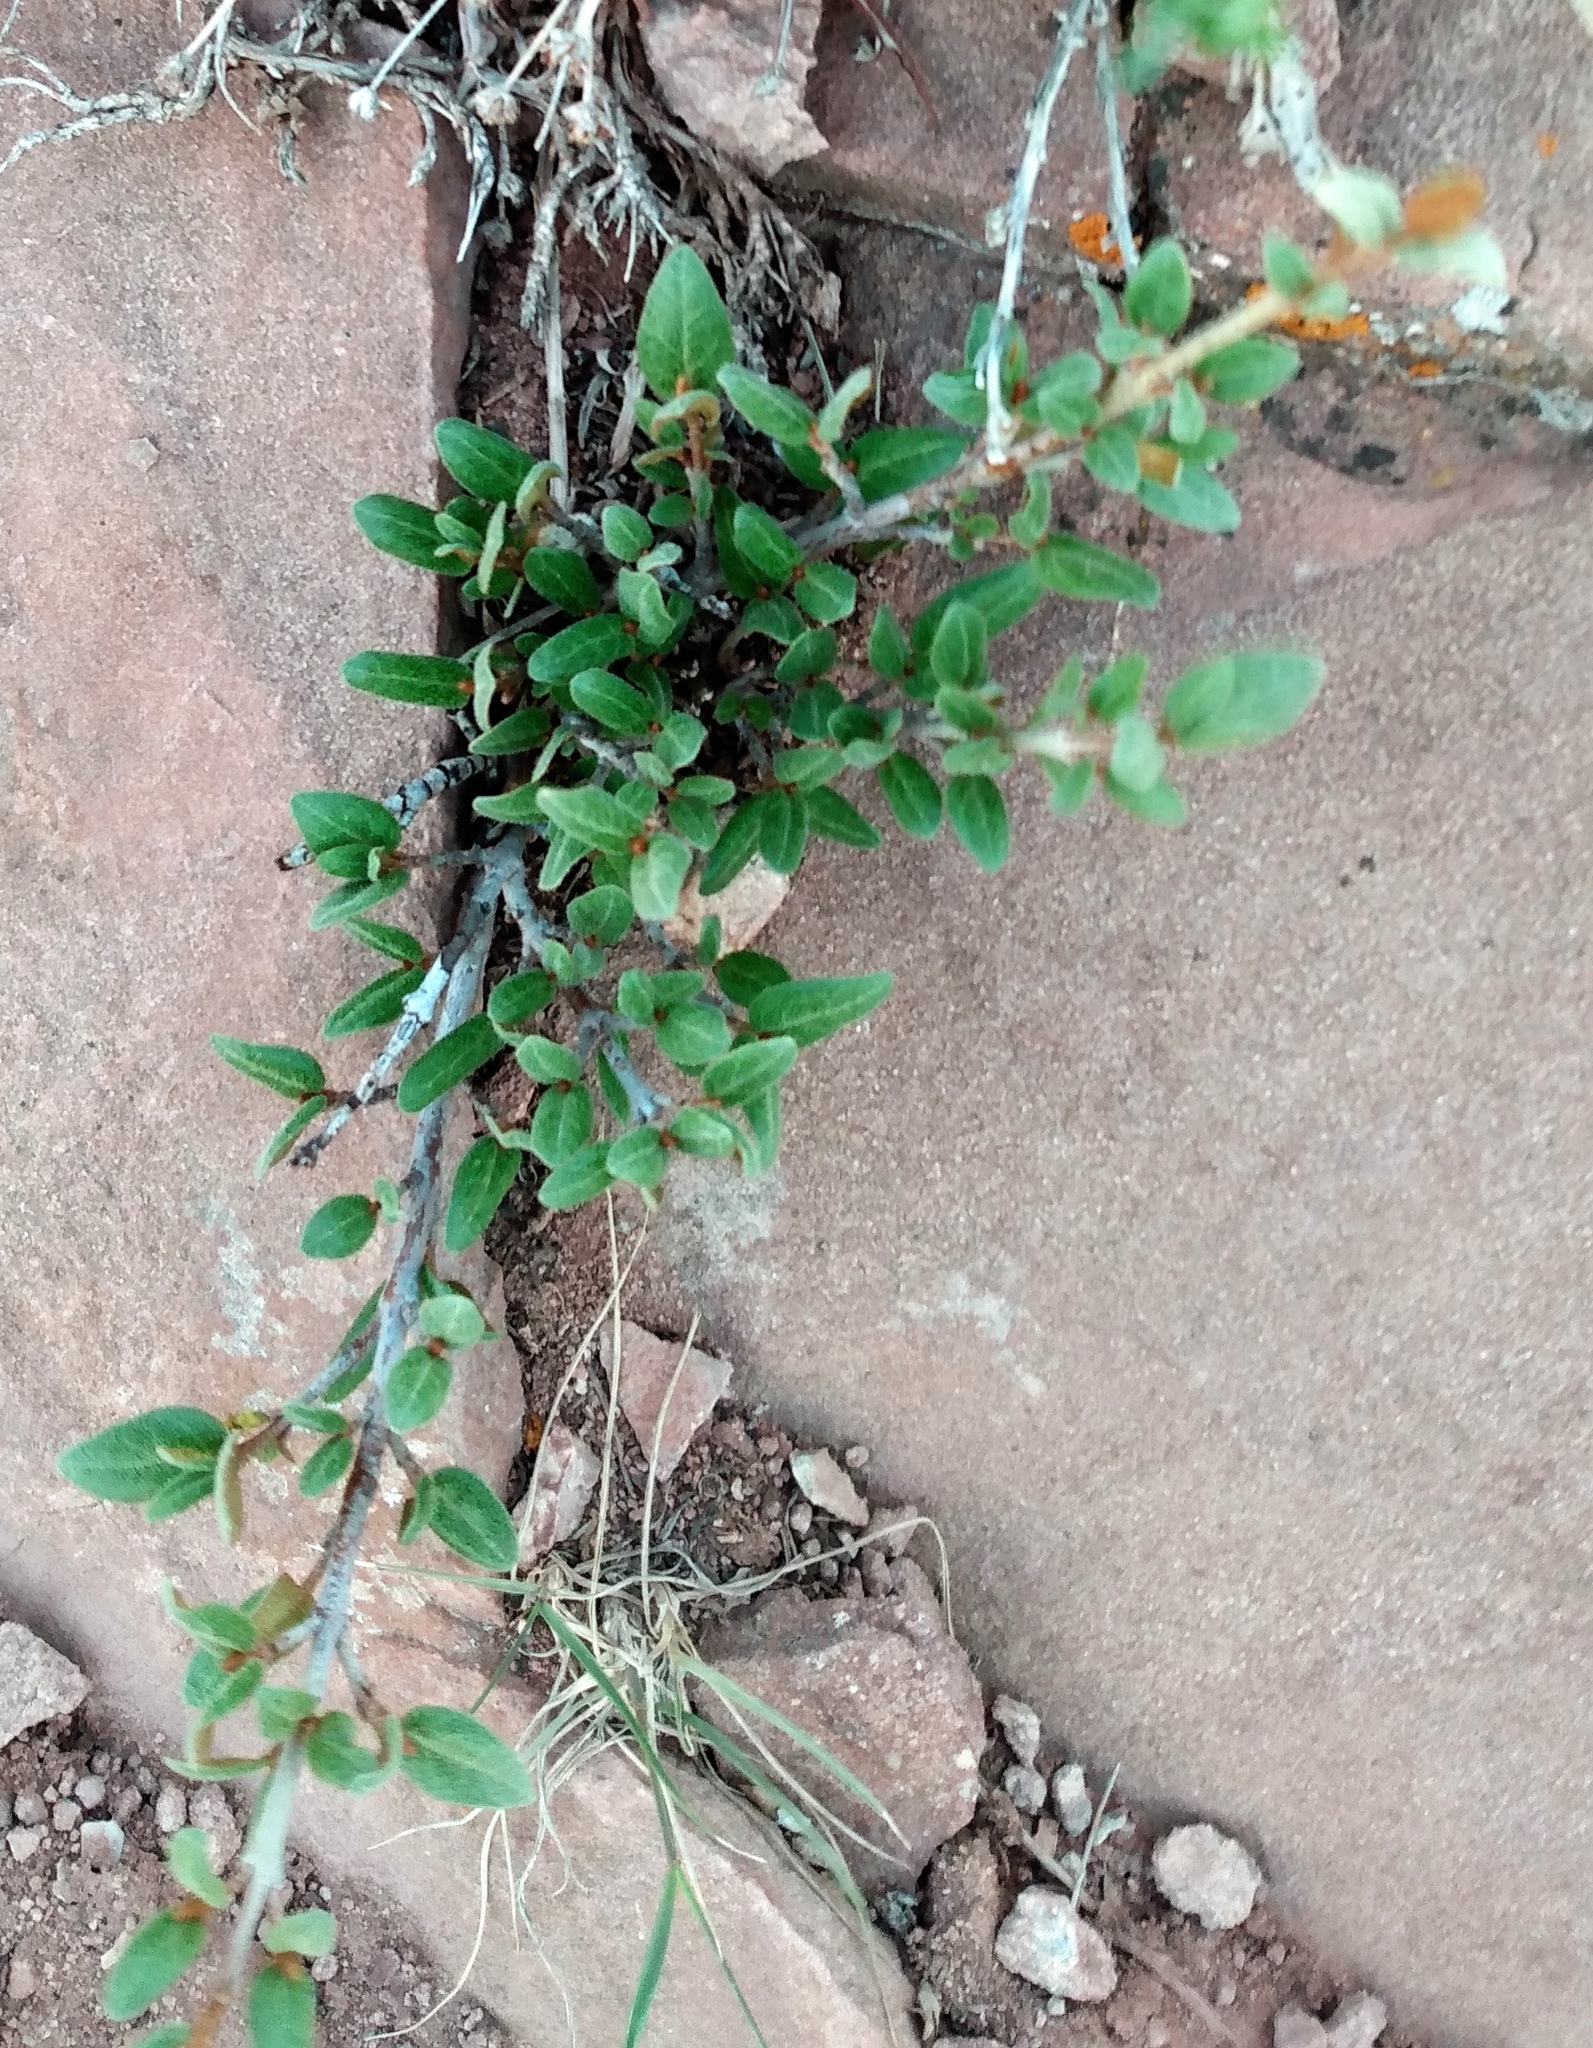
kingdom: Plantae
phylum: Tracheophyta
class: Magnoliopsida
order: Rosales
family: Elaeagnaceae
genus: Shepherdia
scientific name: Shepherdia canadensis
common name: Soapberry
